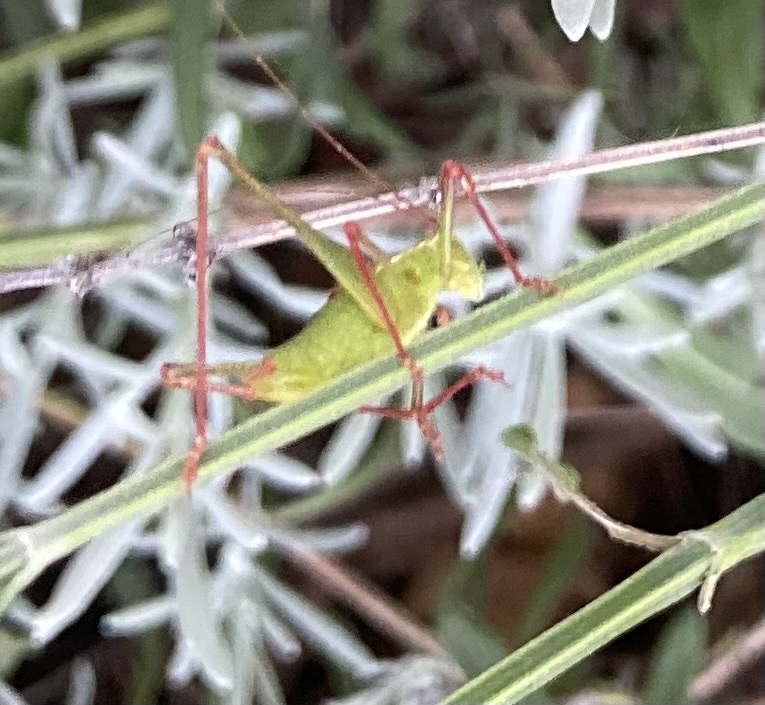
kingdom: Animalia
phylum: Arthropoda
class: Insecta
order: Orthoptera
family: Tettigoniidae
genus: Leptophyes
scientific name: Leptophyes punctatissima
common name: Speckled bush-cricket
